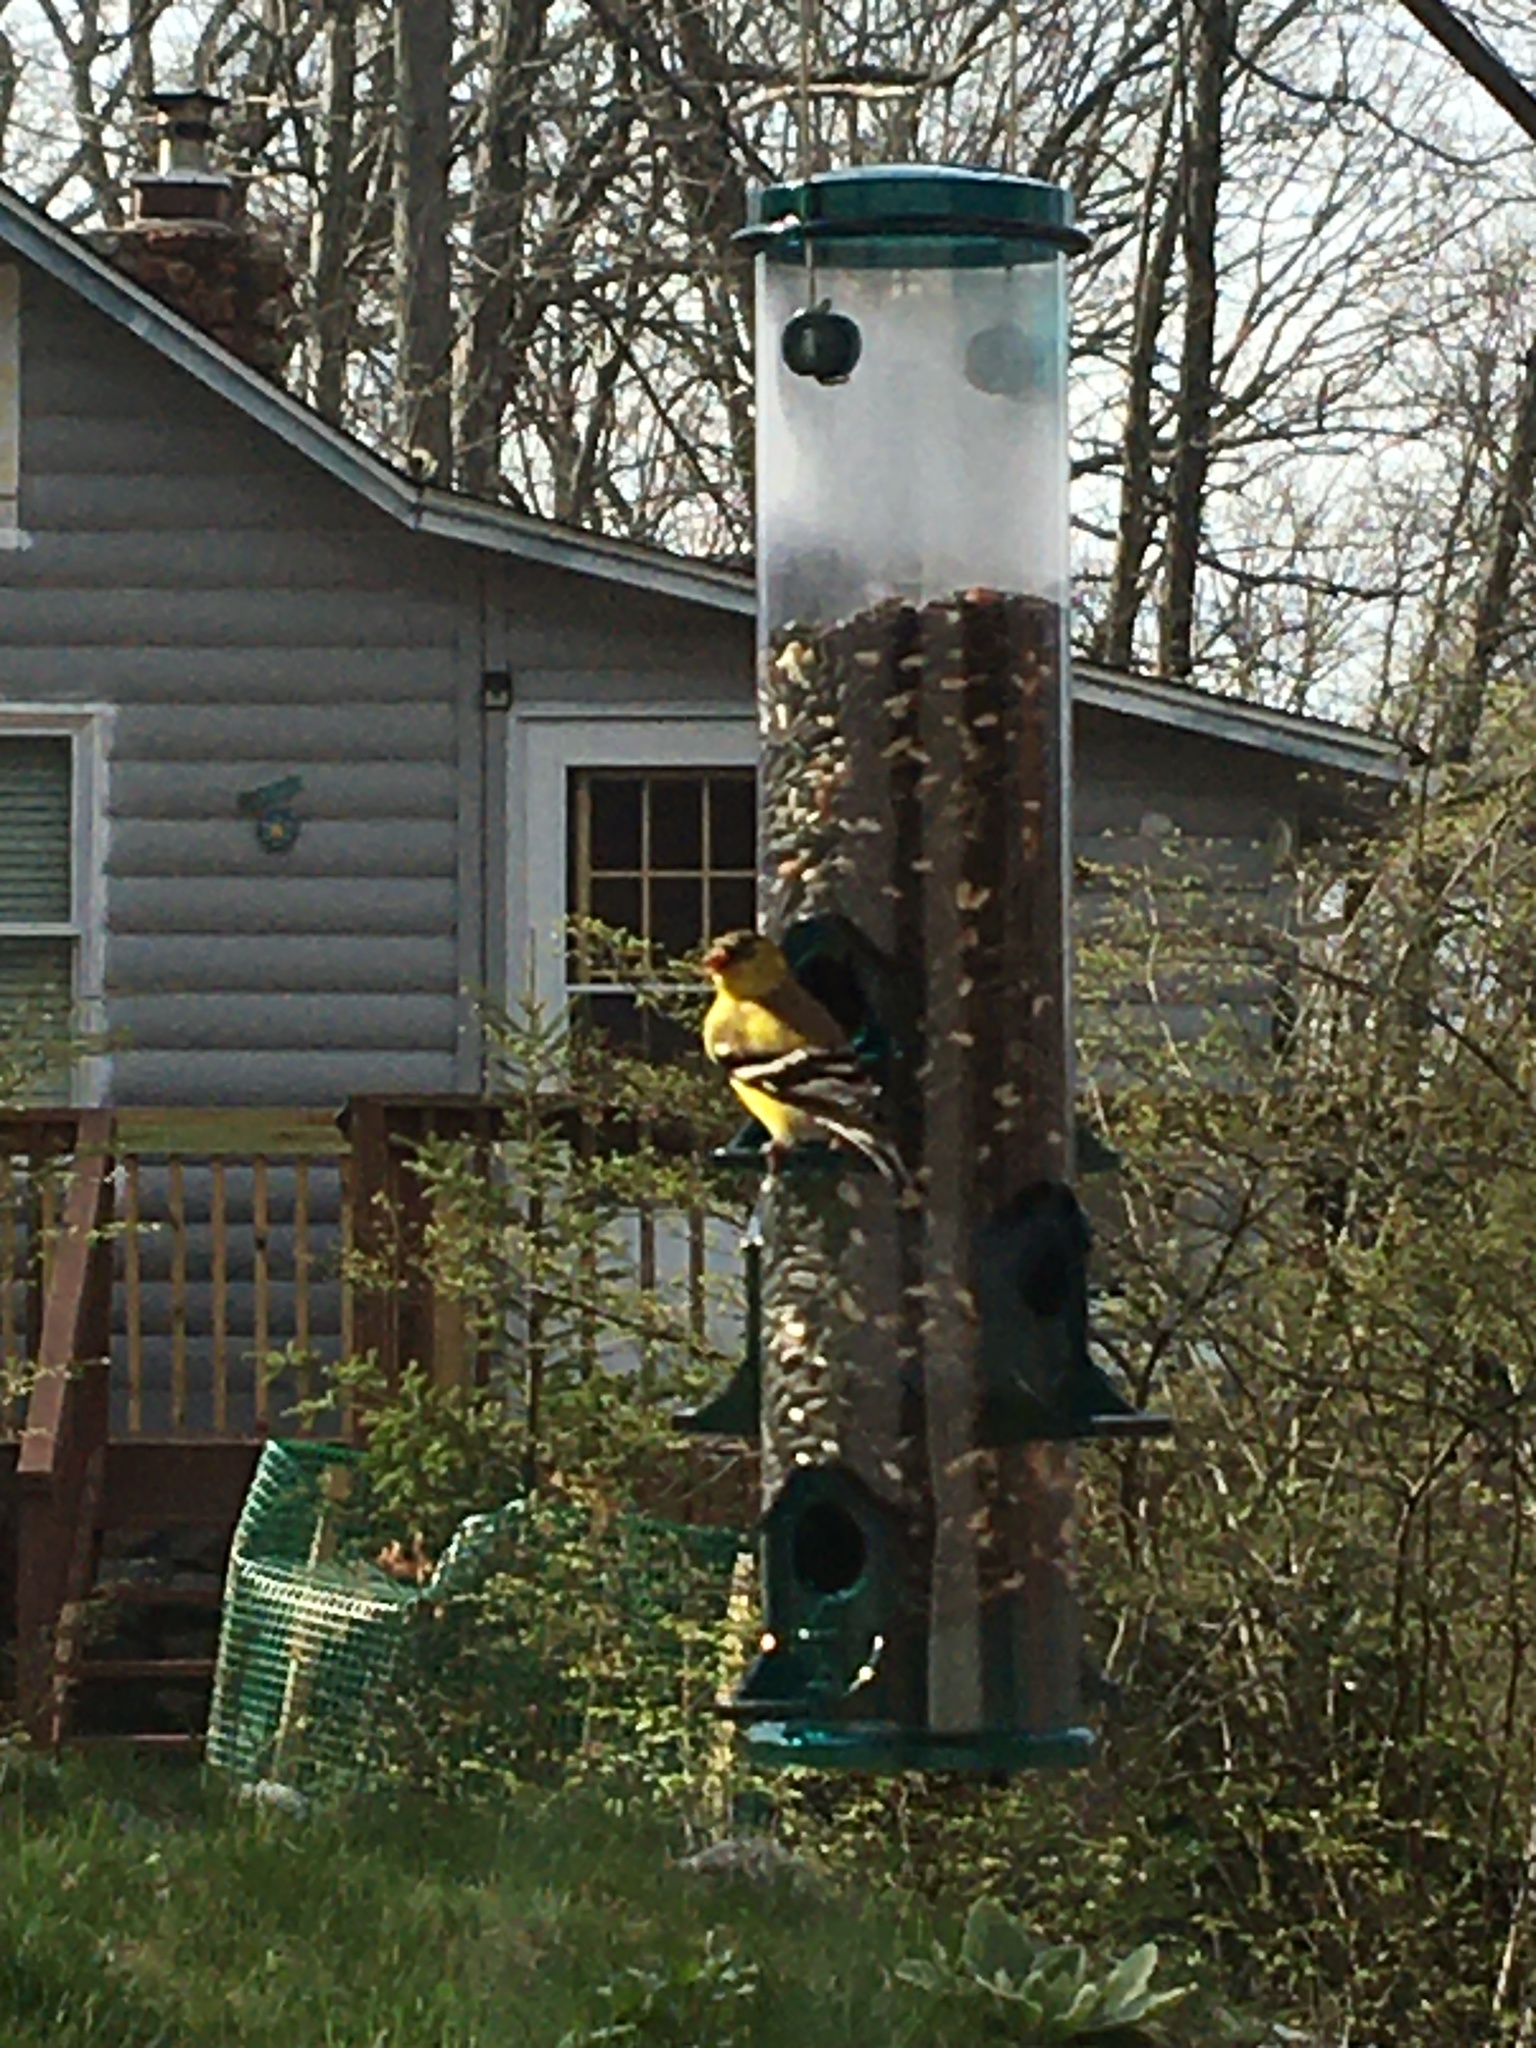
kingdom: Animalia
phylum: Chordata
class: Aves
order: Passeriformes
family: Fringillidae
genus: Spinus
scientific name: Spinus tristis
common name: American goldfinch
